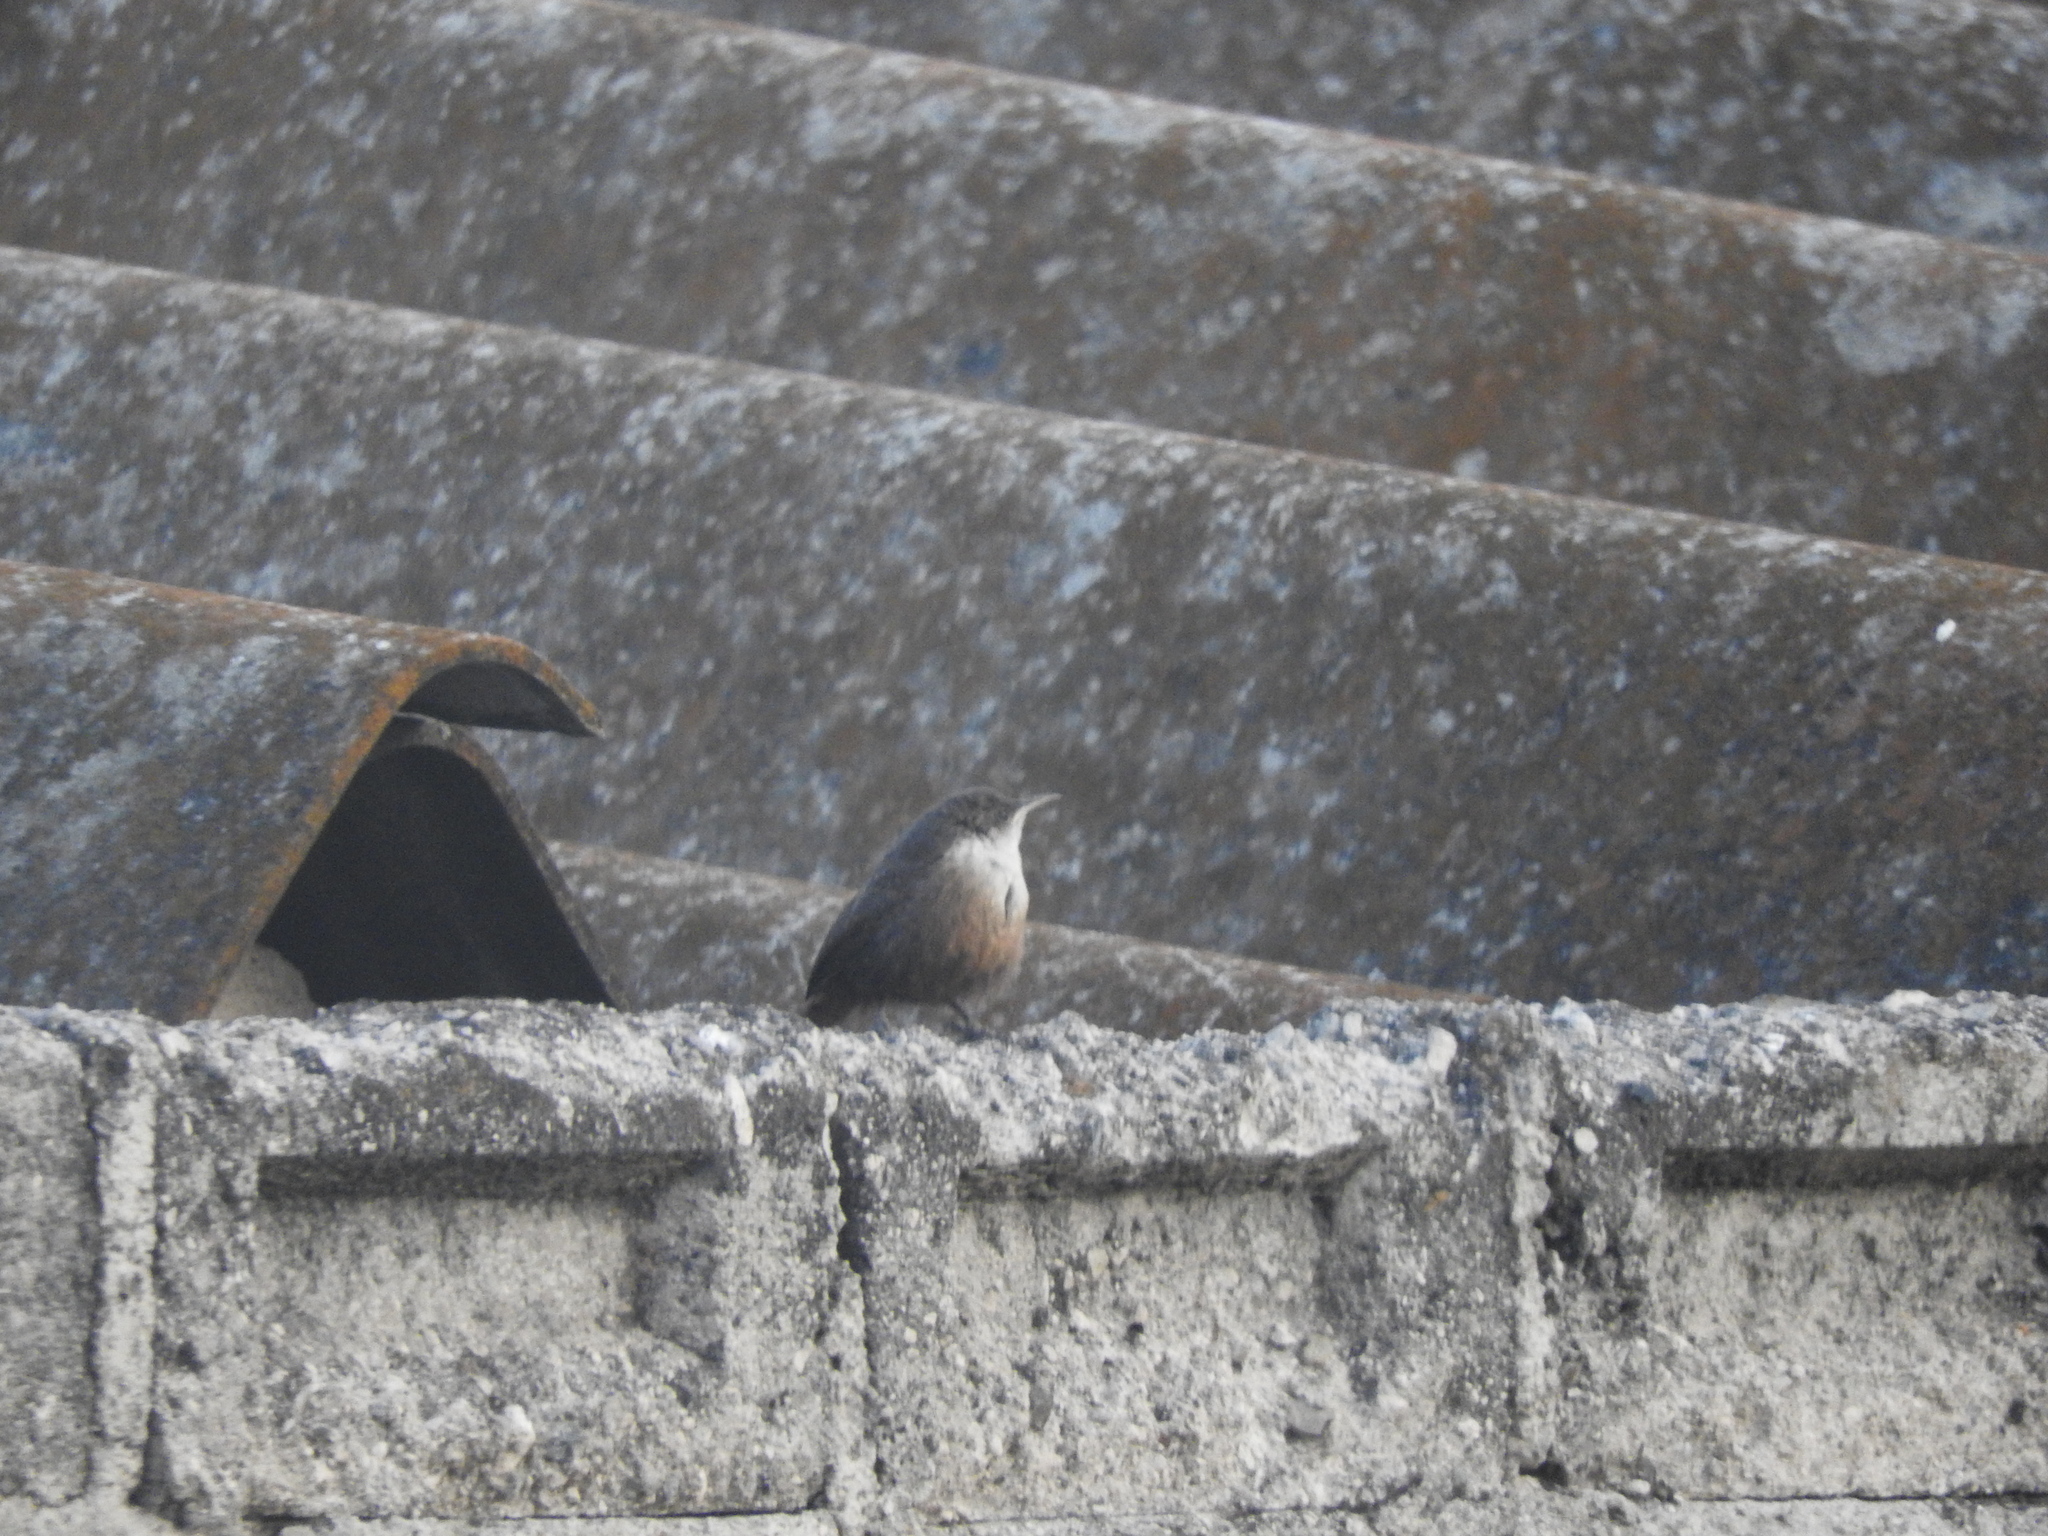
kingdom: Animalia
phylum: Chordata
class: Aves
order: Passeriformes
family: Troglodytidae
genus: Catherpes
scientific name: Catherpes mexicanus
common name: Canyon wren
